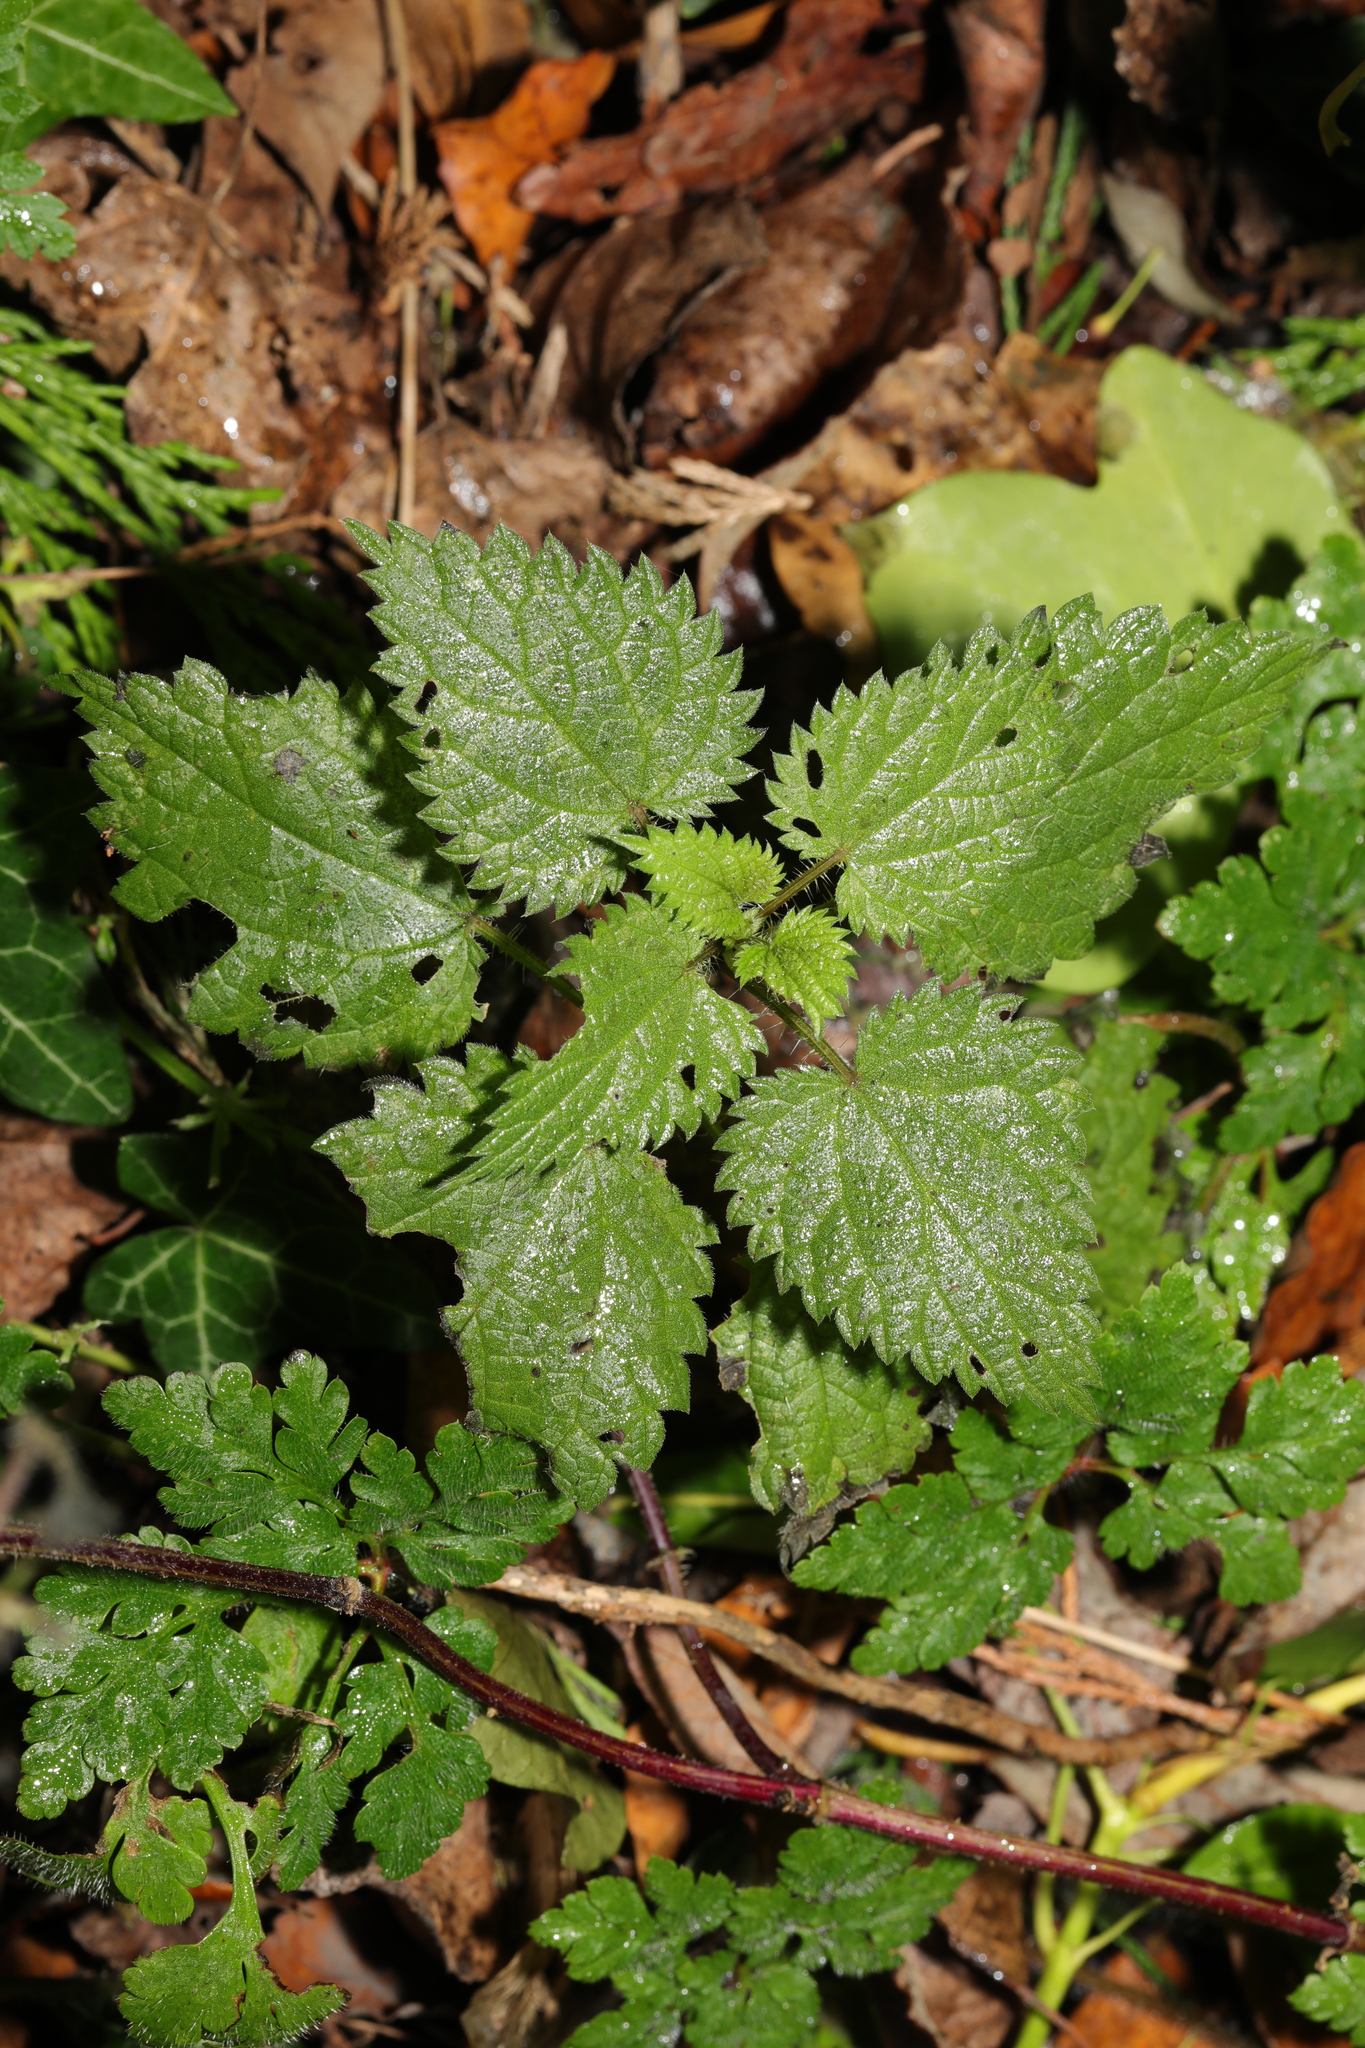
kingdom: Plantae
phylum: Tracheophyta
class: Magnoliopsida
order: Rosales
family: Urticaceae
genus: Urtica
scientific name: Urtica dioica
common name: Common nettle
